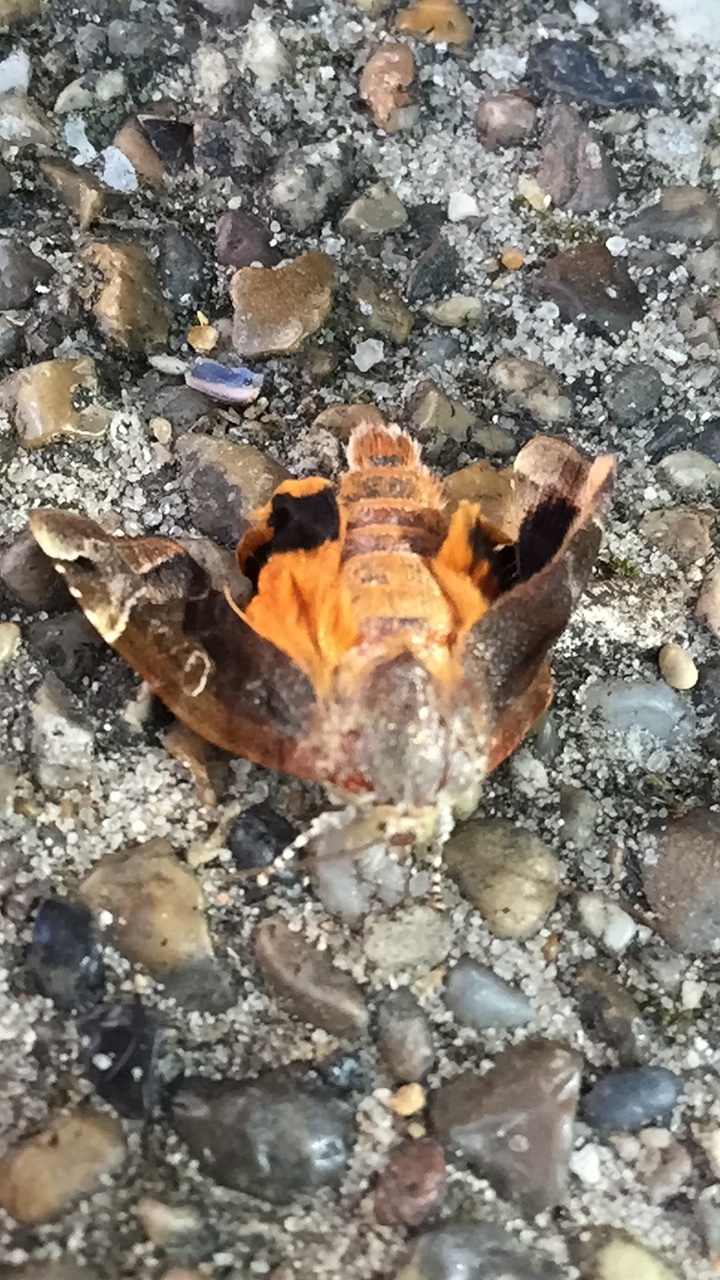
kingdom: Animalia
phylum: Arthropoda
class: Insecta
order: Lepidoptera
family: Noctuidae
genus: Noctua
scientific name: Noctua fimbriata
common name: Broad-bordered yellow underwing
